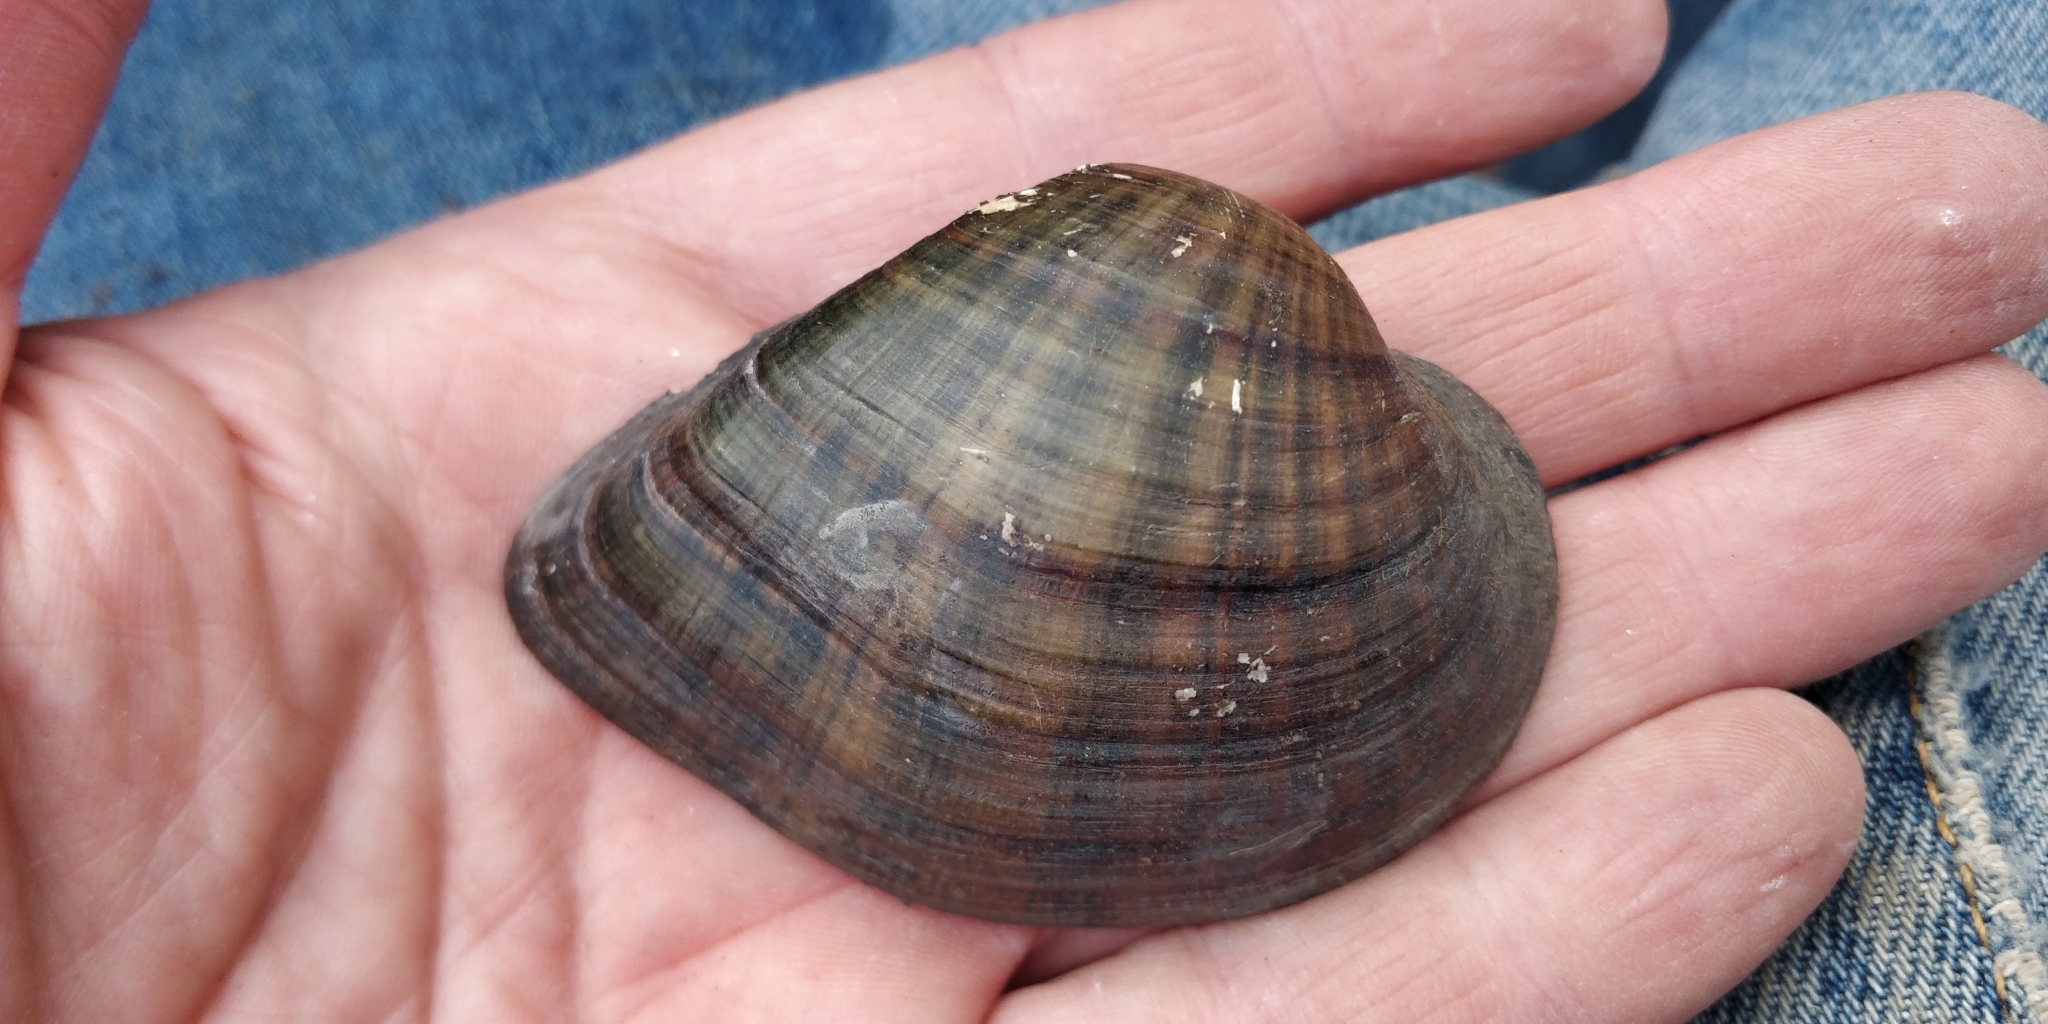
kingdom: Animalia
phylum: Mollusca
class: Bivalvia
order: Unionida
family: Unionidae
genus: Truncilla
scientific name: Truncilla truncata
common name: Deertoe
